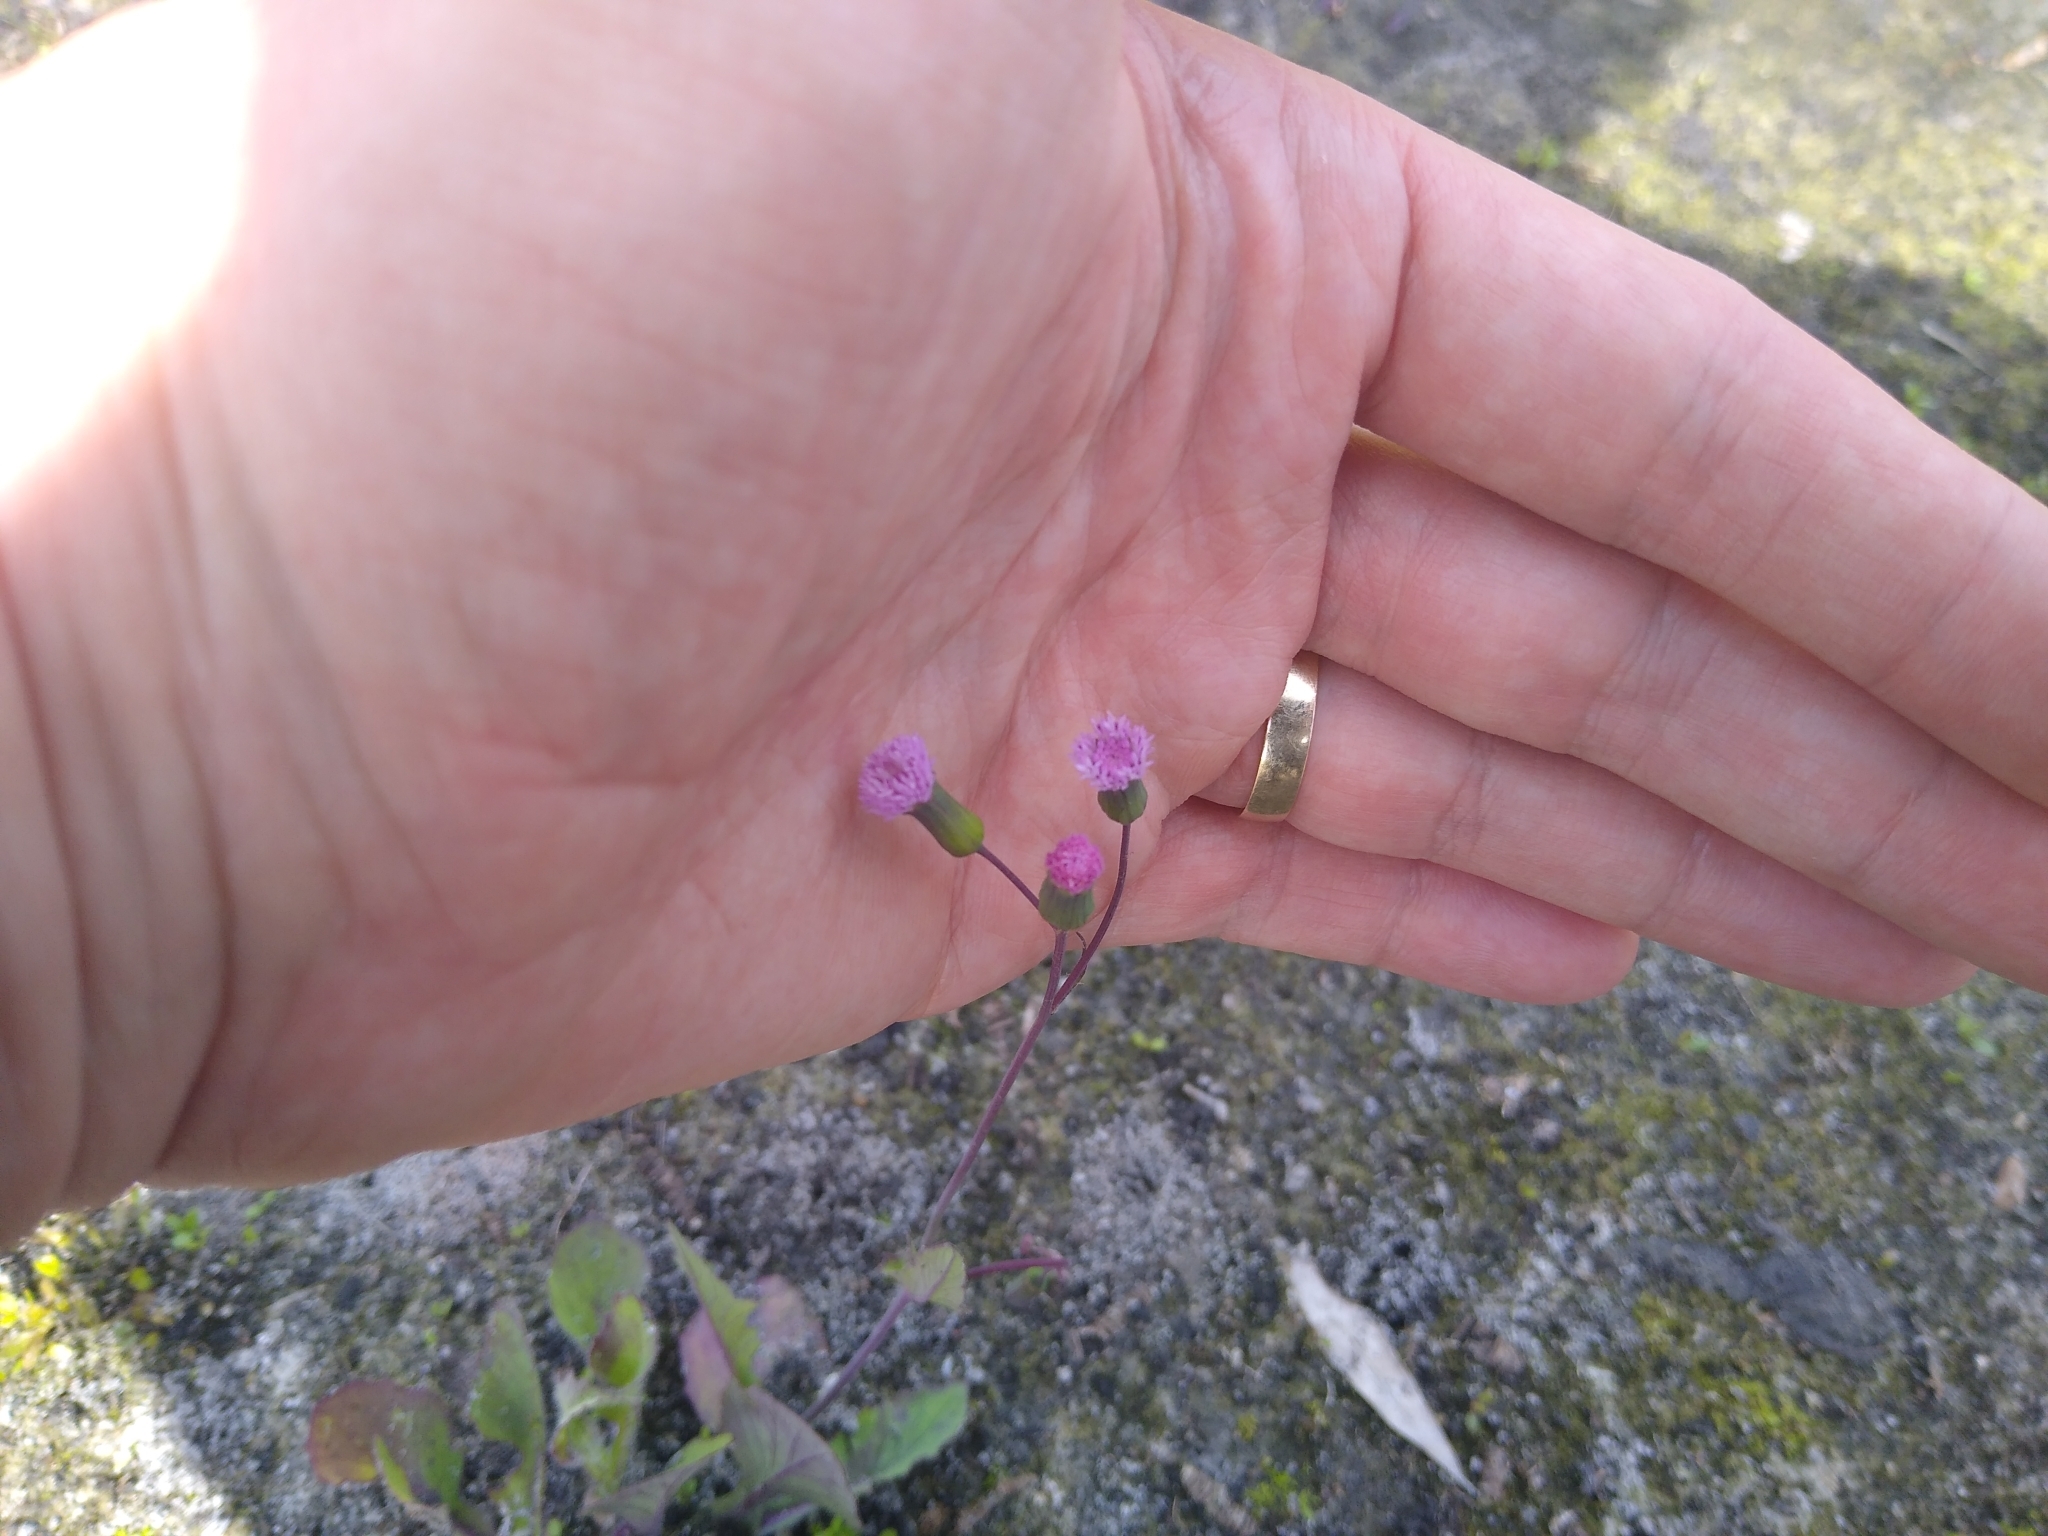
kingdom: Plantae
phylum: Tracheophyta
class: Magnoliopsida
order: Asterales
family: Asteraceae
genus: Emilia
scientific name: Emilia sonchifolia
